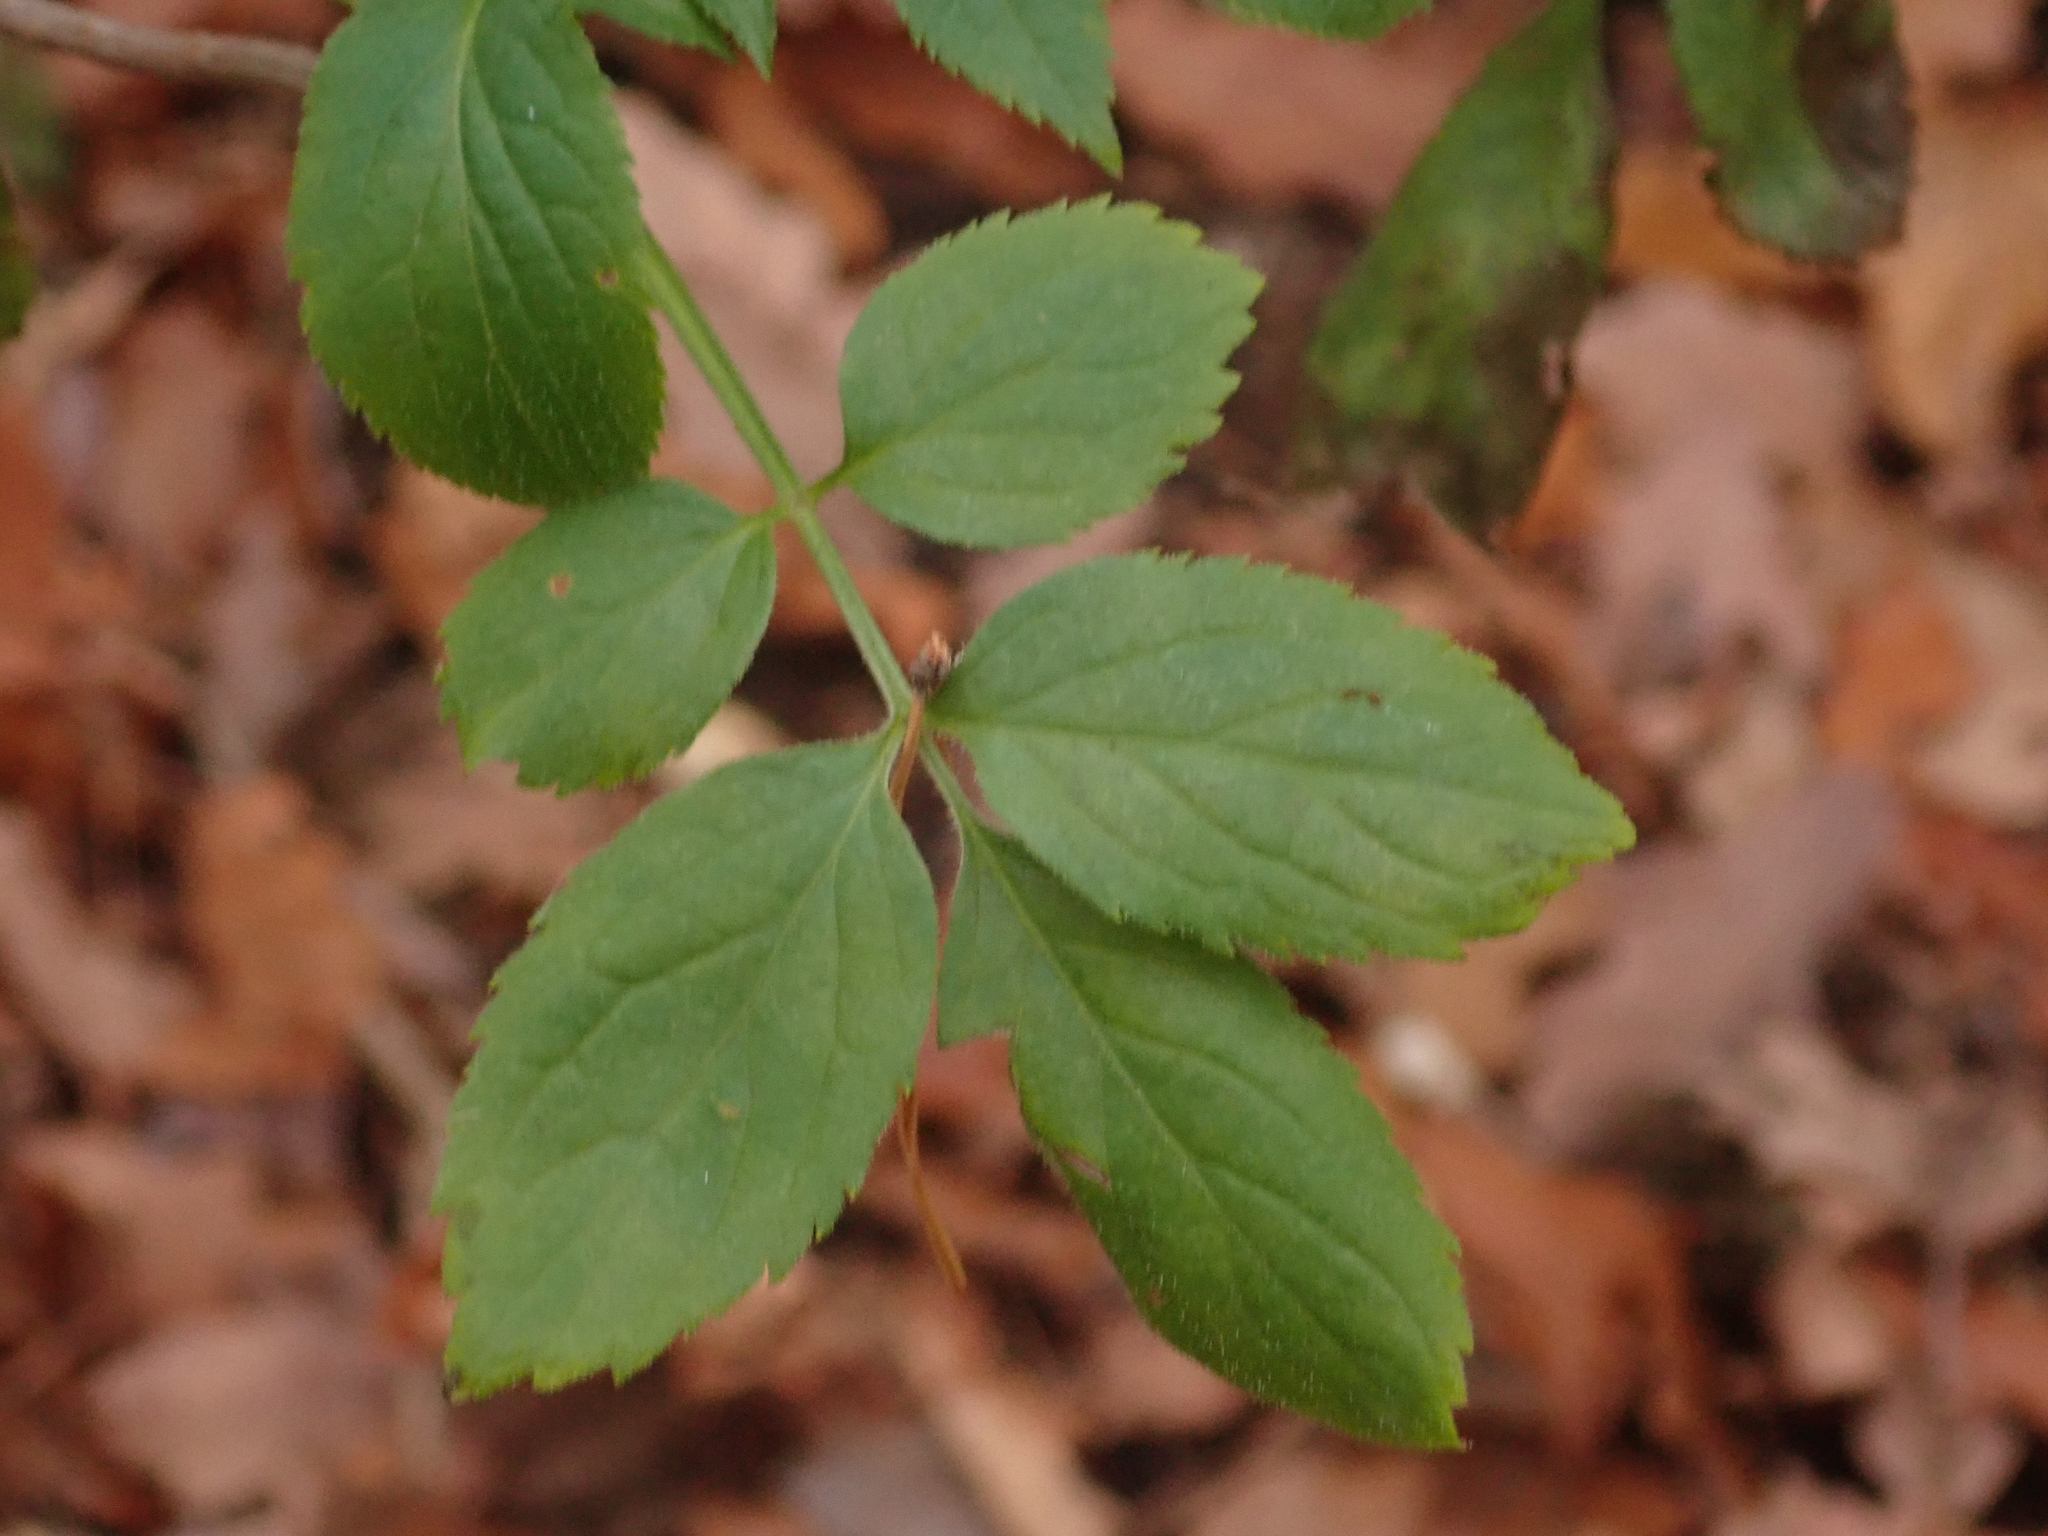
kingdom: Plantae
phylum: Tracheophyta
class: Magnoliopsida
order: Dipsacales
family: Viburnaceae
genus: Sambucus
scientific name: Sambucus nigra
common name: Elder
